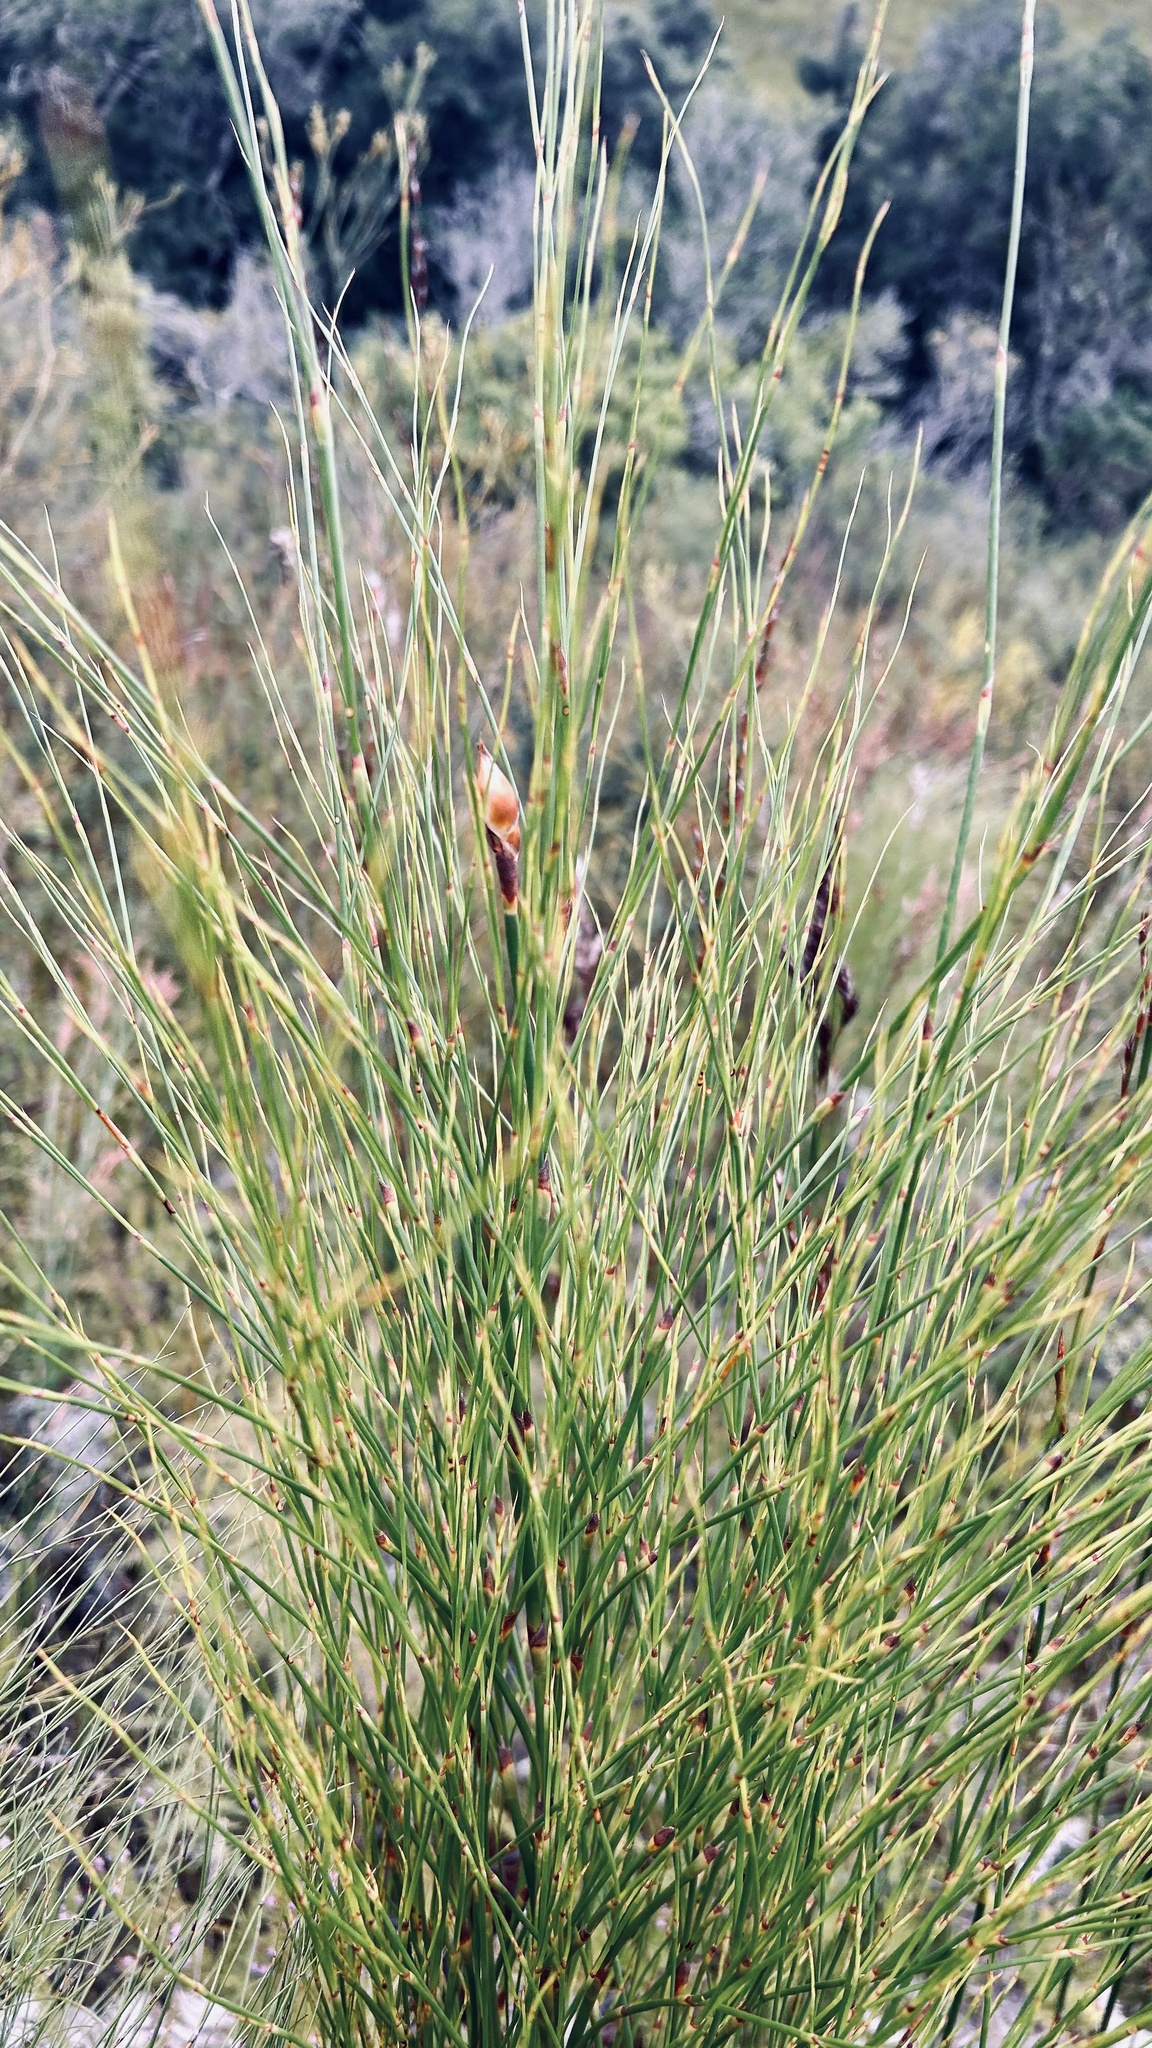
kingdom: Plantae
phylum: Tracheophyta
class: Liliopsida
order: Poales
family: Restionaceae
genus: Cannomois
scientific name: Cannomois virgata
